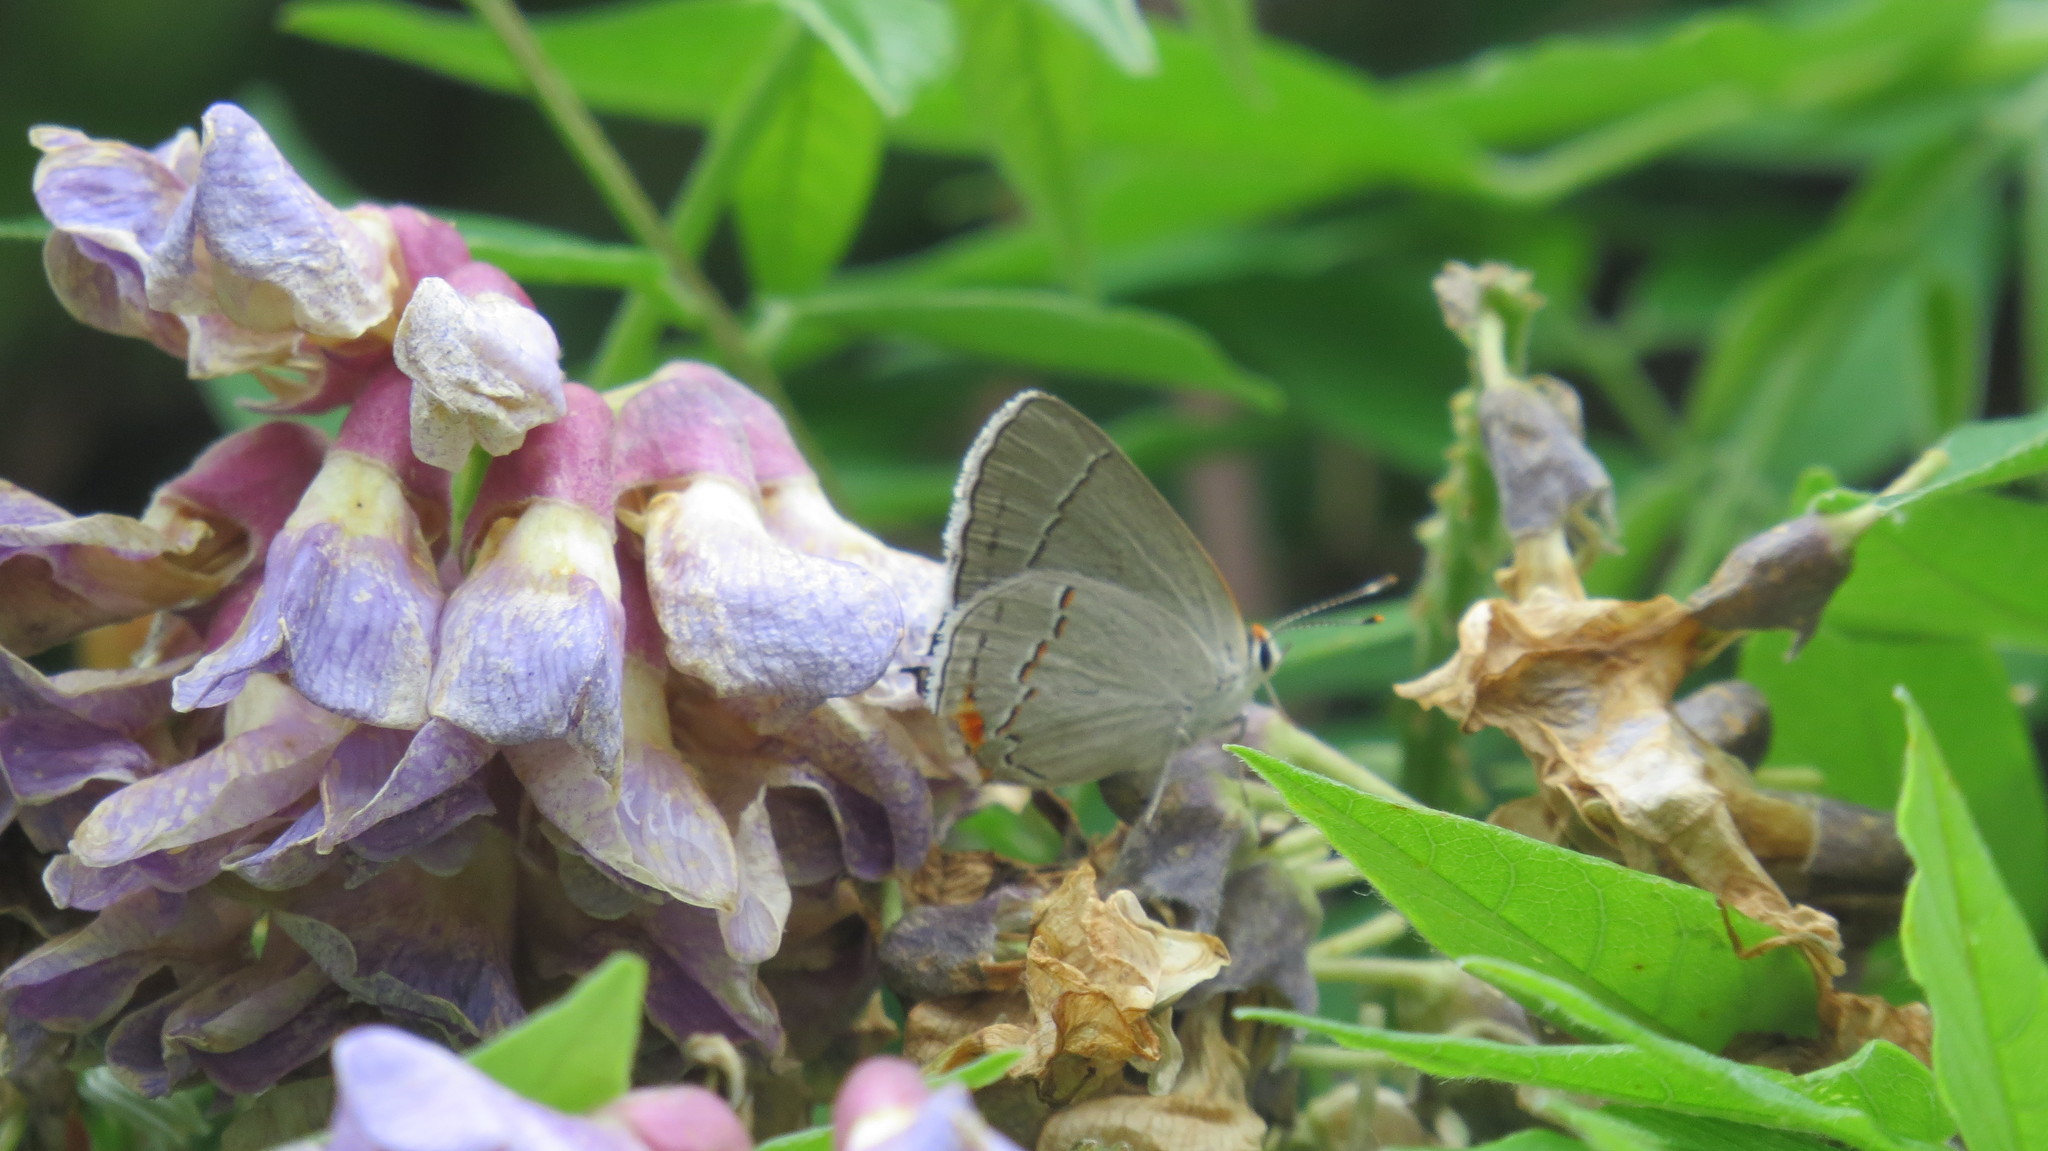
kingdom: Animalia
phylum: Arthropoda
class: Insecta
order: Lepidoptera
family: Lycaenidae
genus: Strymon
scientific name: Strymon melinus
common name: Gray hairstreak
